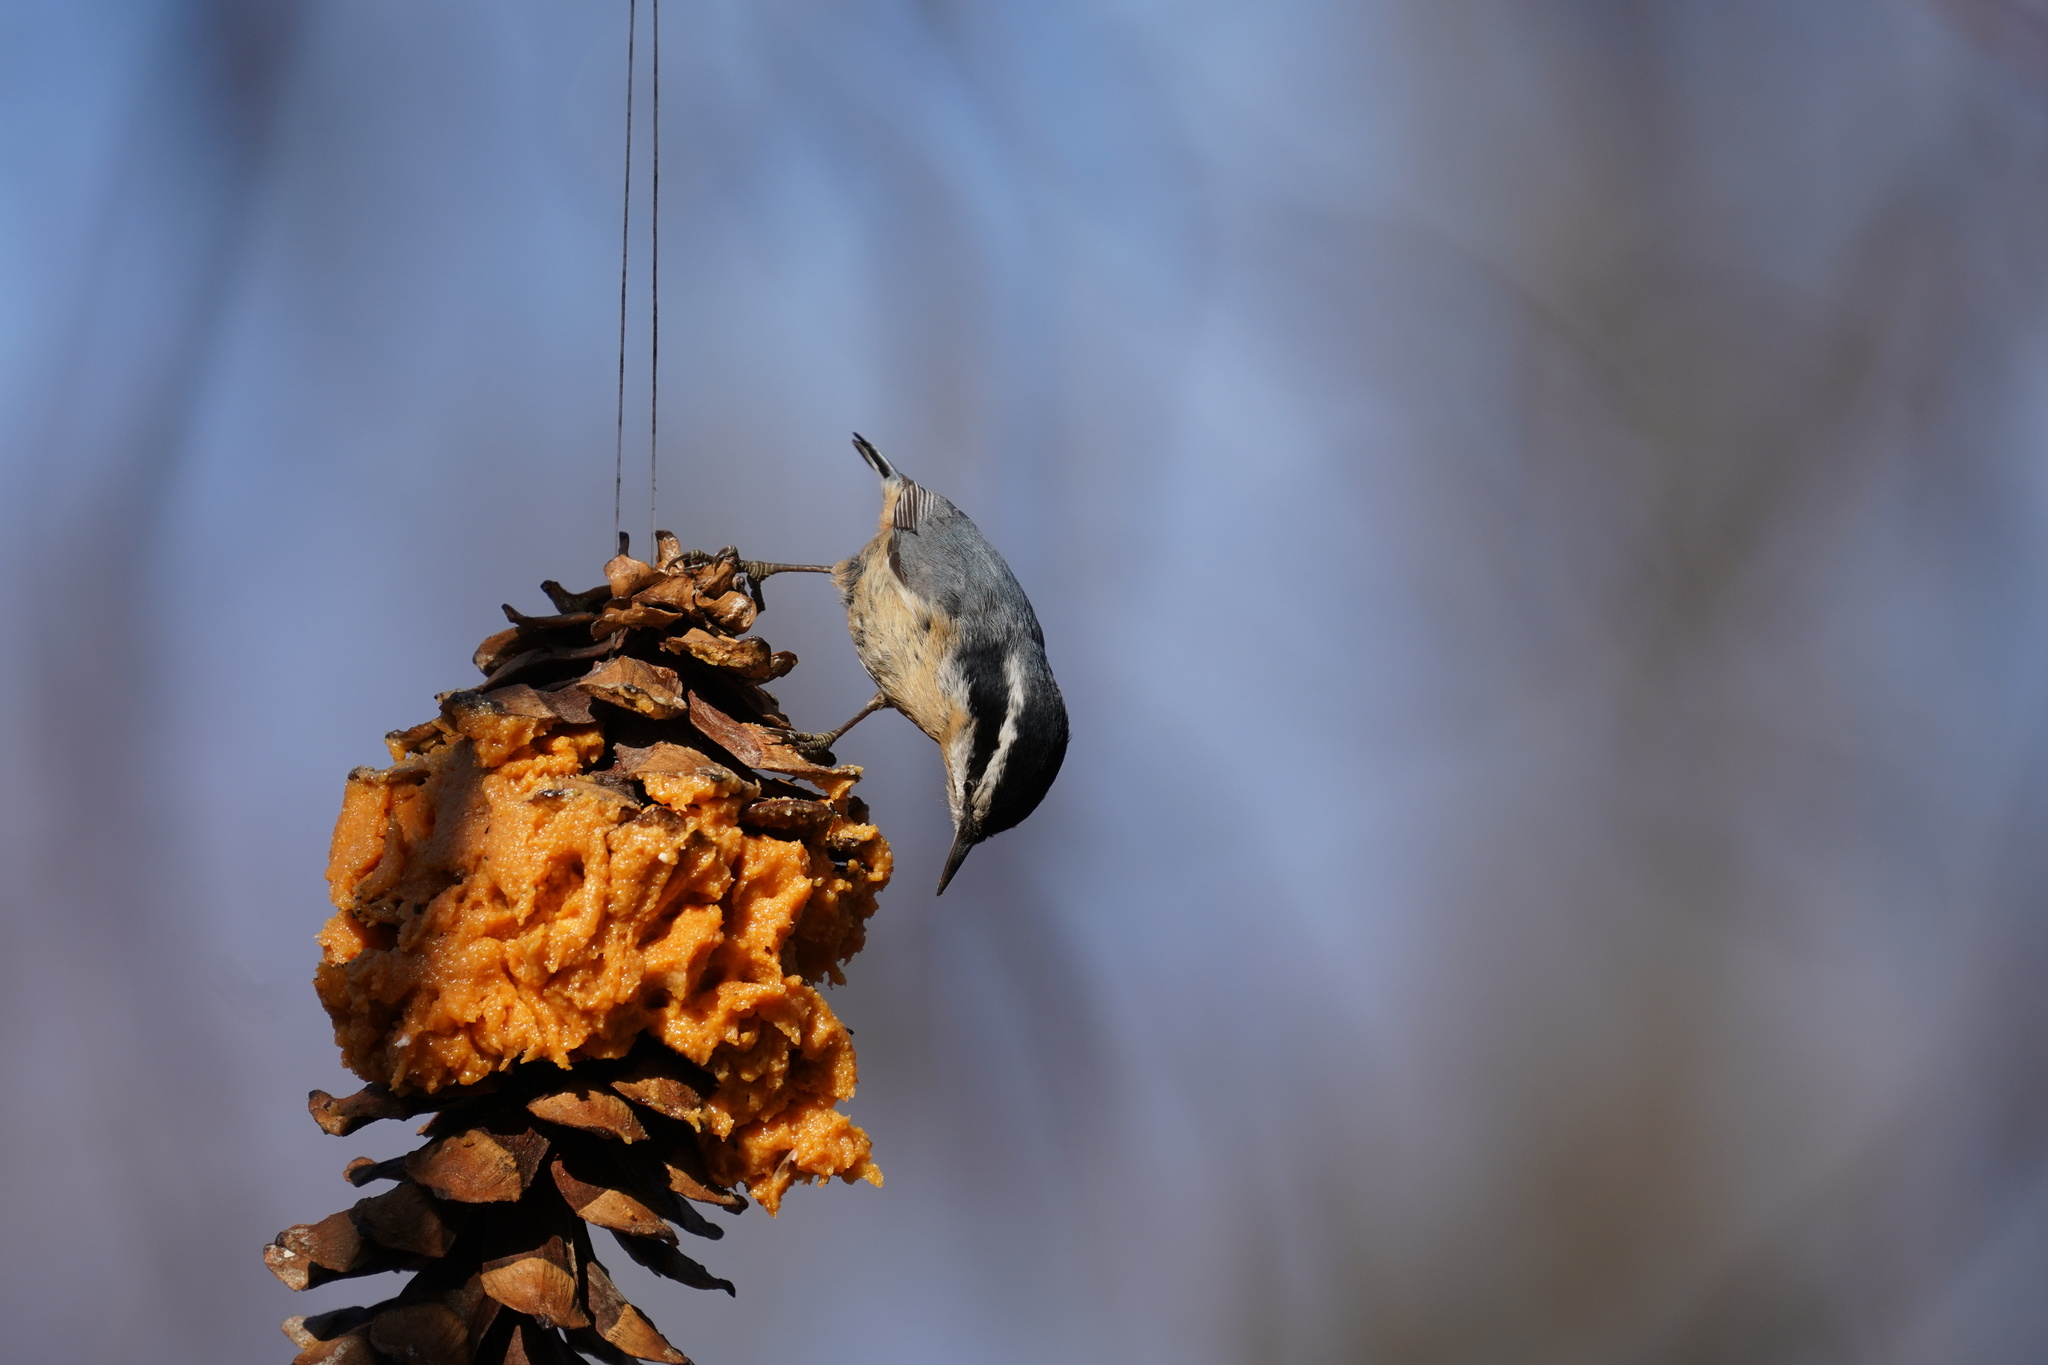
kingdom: Animalia
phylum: Chordata
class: Aves
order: Passeriformes
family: Sittidae
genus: Sitta
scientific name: Sitta canadensis
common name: Red-breasted nuthatch
